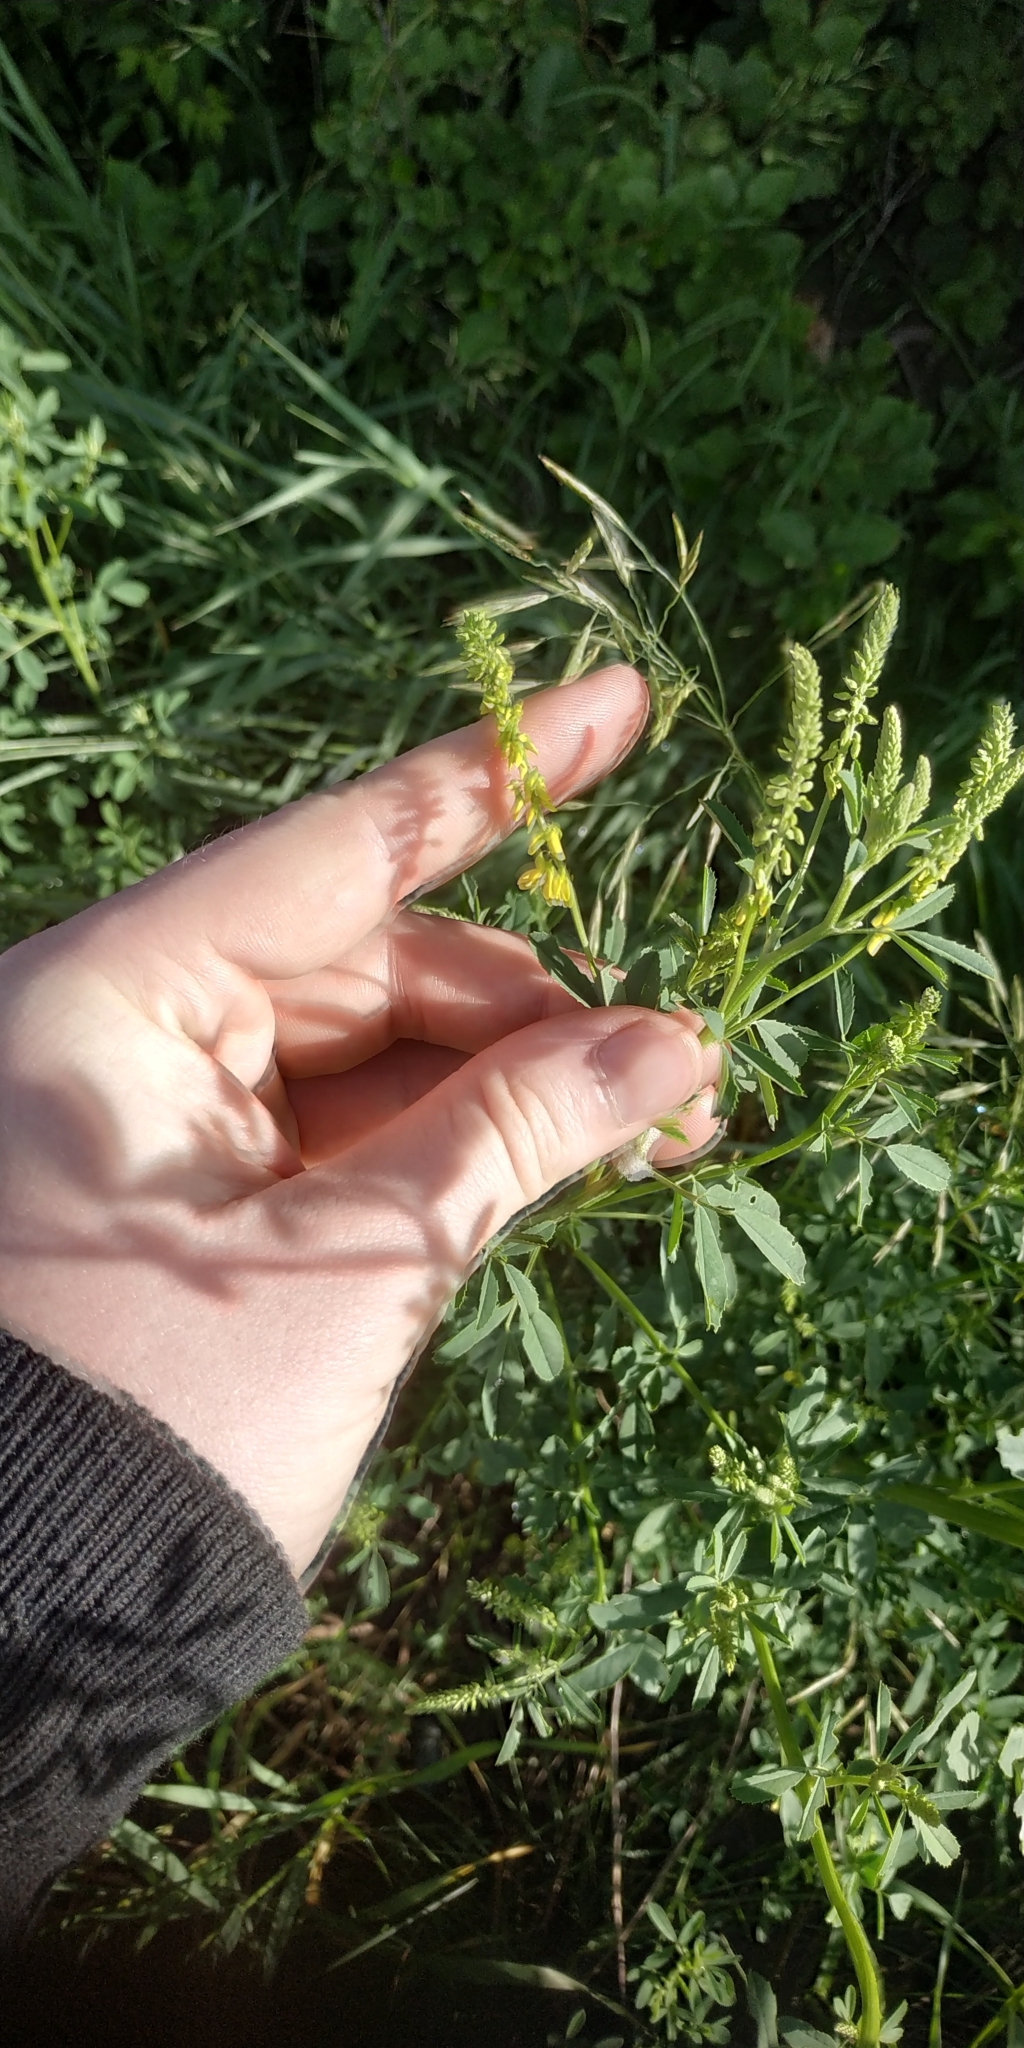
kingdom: Plantae
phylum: Tracheophyta
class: Magnoliopsida
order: Fabales
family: Fabaceae
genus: Melilotus
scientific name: Melilotus officinalis
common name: Sweetclover
